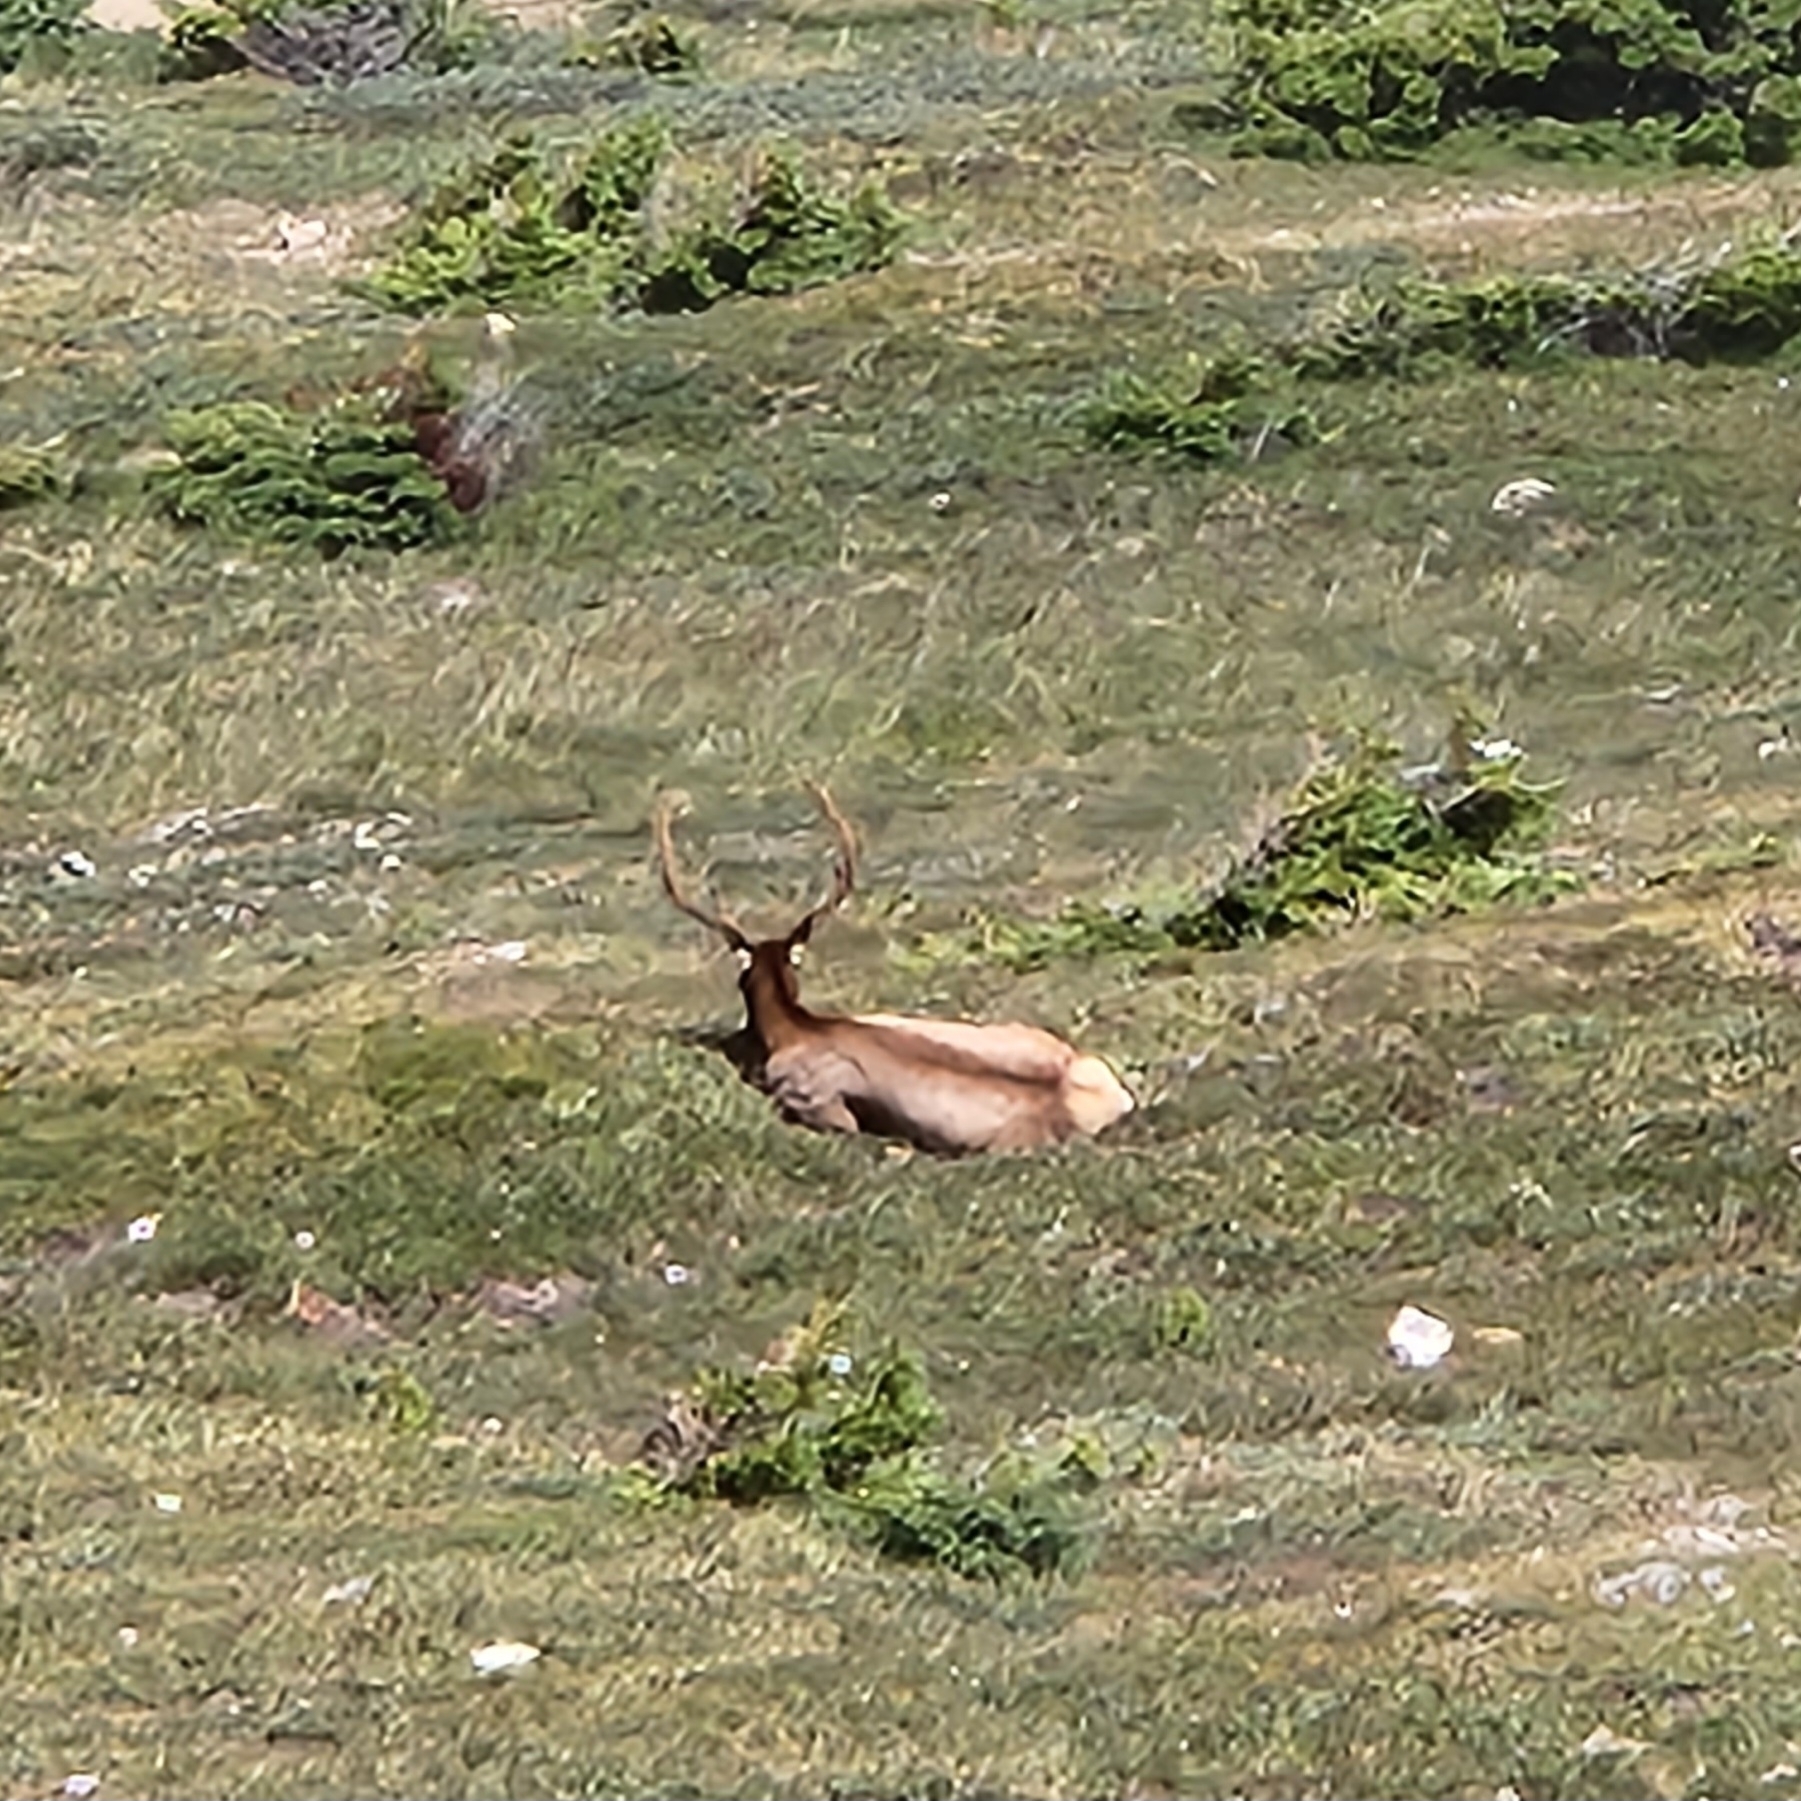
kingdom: Animalia
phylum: Chordata
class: Mammalia
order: Artiodactyla
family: Cervidae
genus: Cervus
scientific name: Cervus elaphus
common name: Red deer
